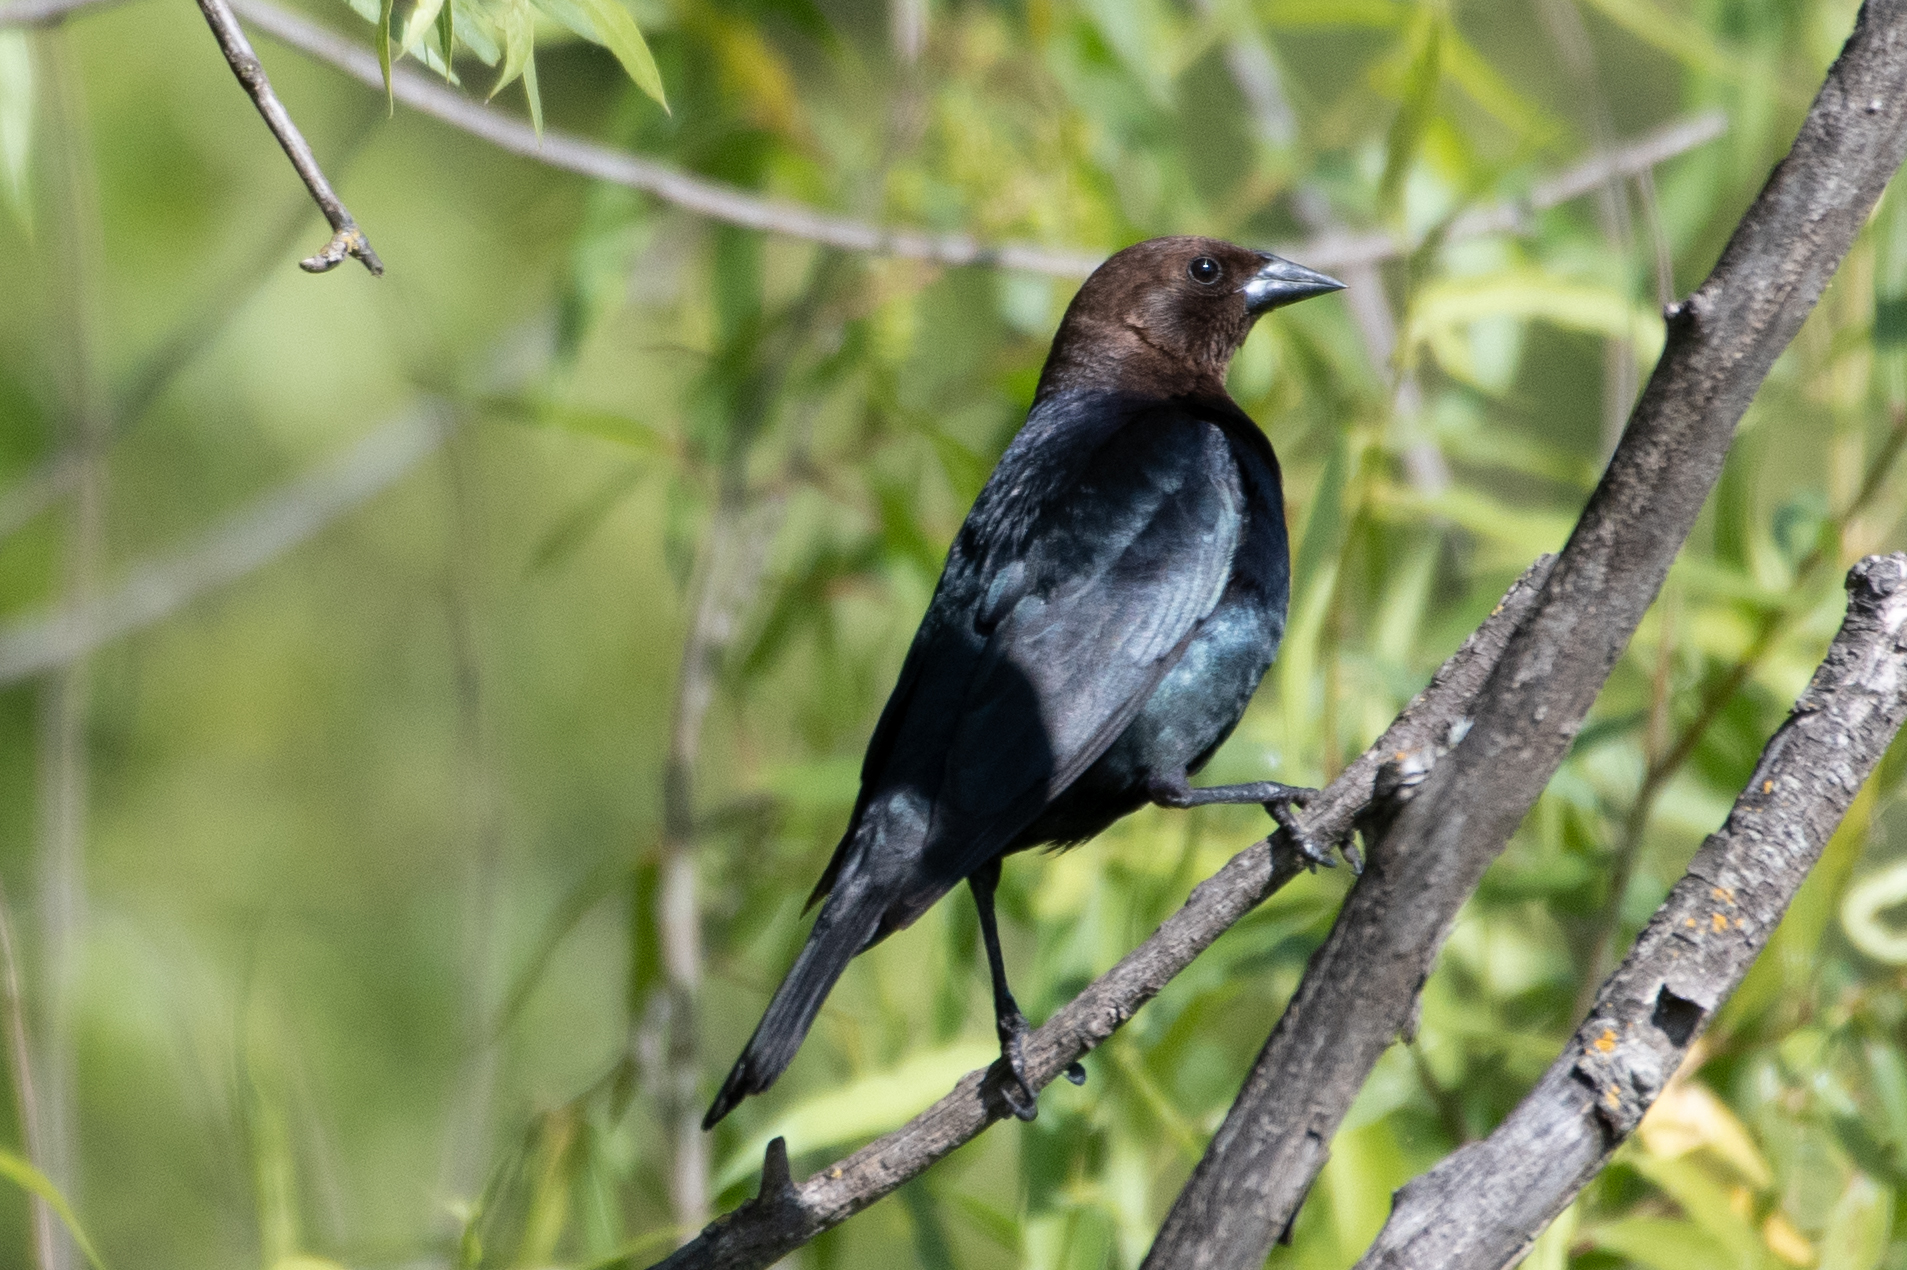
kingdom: Animalia
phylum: Chordata
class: Aves
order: Passeriformes
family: Icteridae
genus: Molothrus
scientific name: Molothrus ater
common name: Brown-headed cowbird
